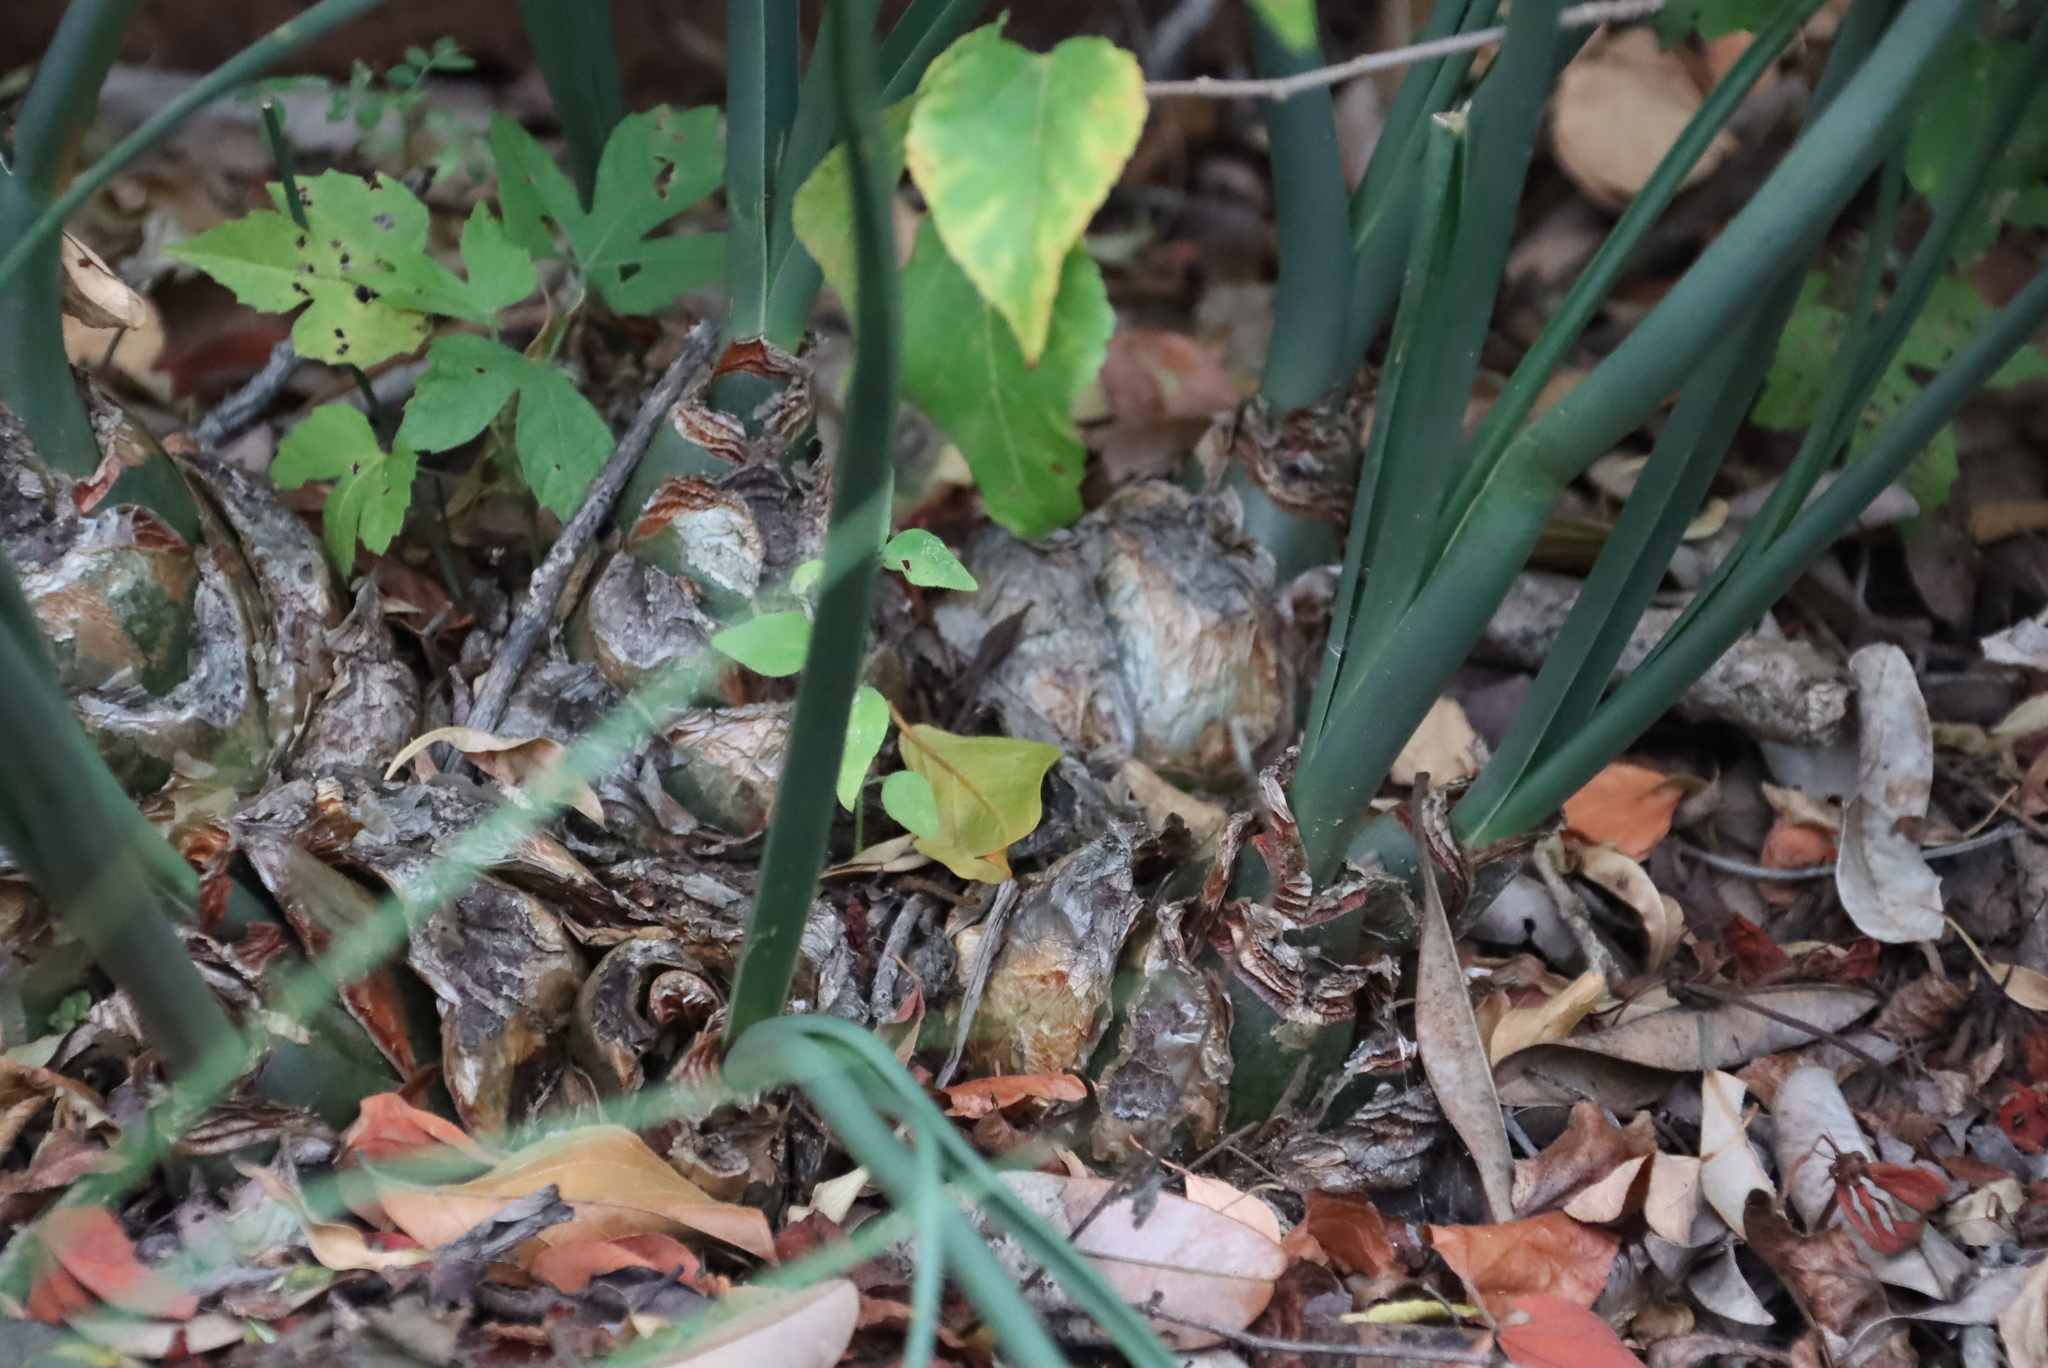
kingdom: Plantae
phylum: Tracheophyta
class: Liliopsida
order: Asparagales
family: Asparagaceae
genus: Drimia
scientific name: Drimia delagoensis
